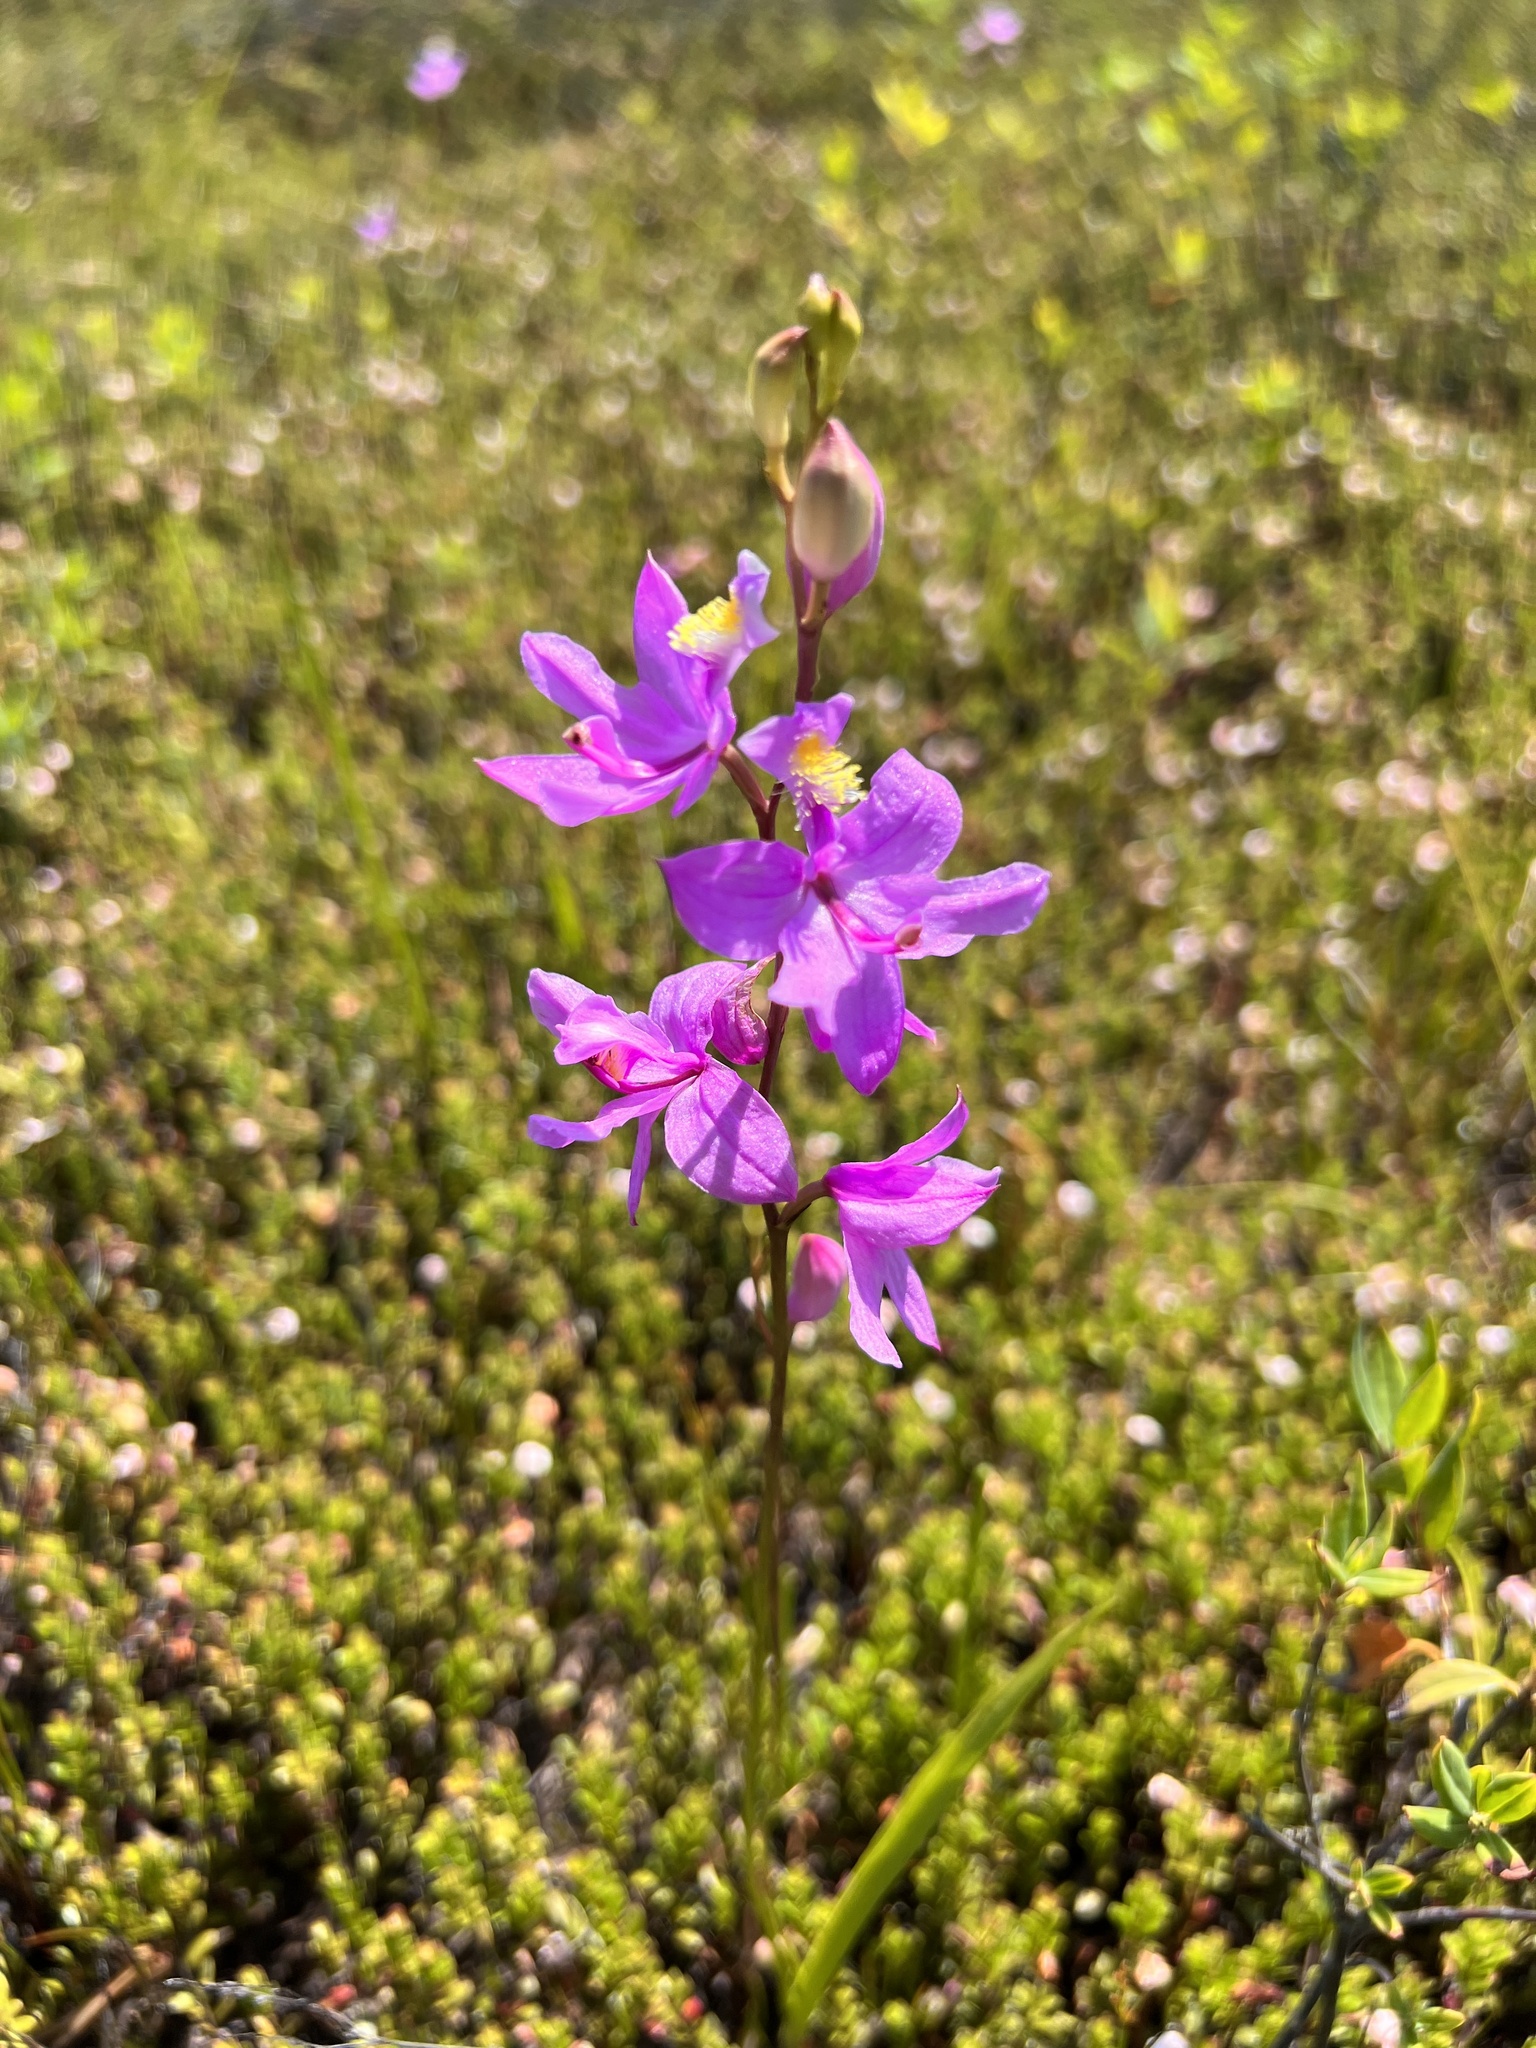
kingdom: Plantae
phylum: Tracheophyta
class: Liliopsida
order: Asparagales
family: Orchidaceae
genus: Calopogon
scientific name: Calopogon tuberosus
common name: Grass-pink
